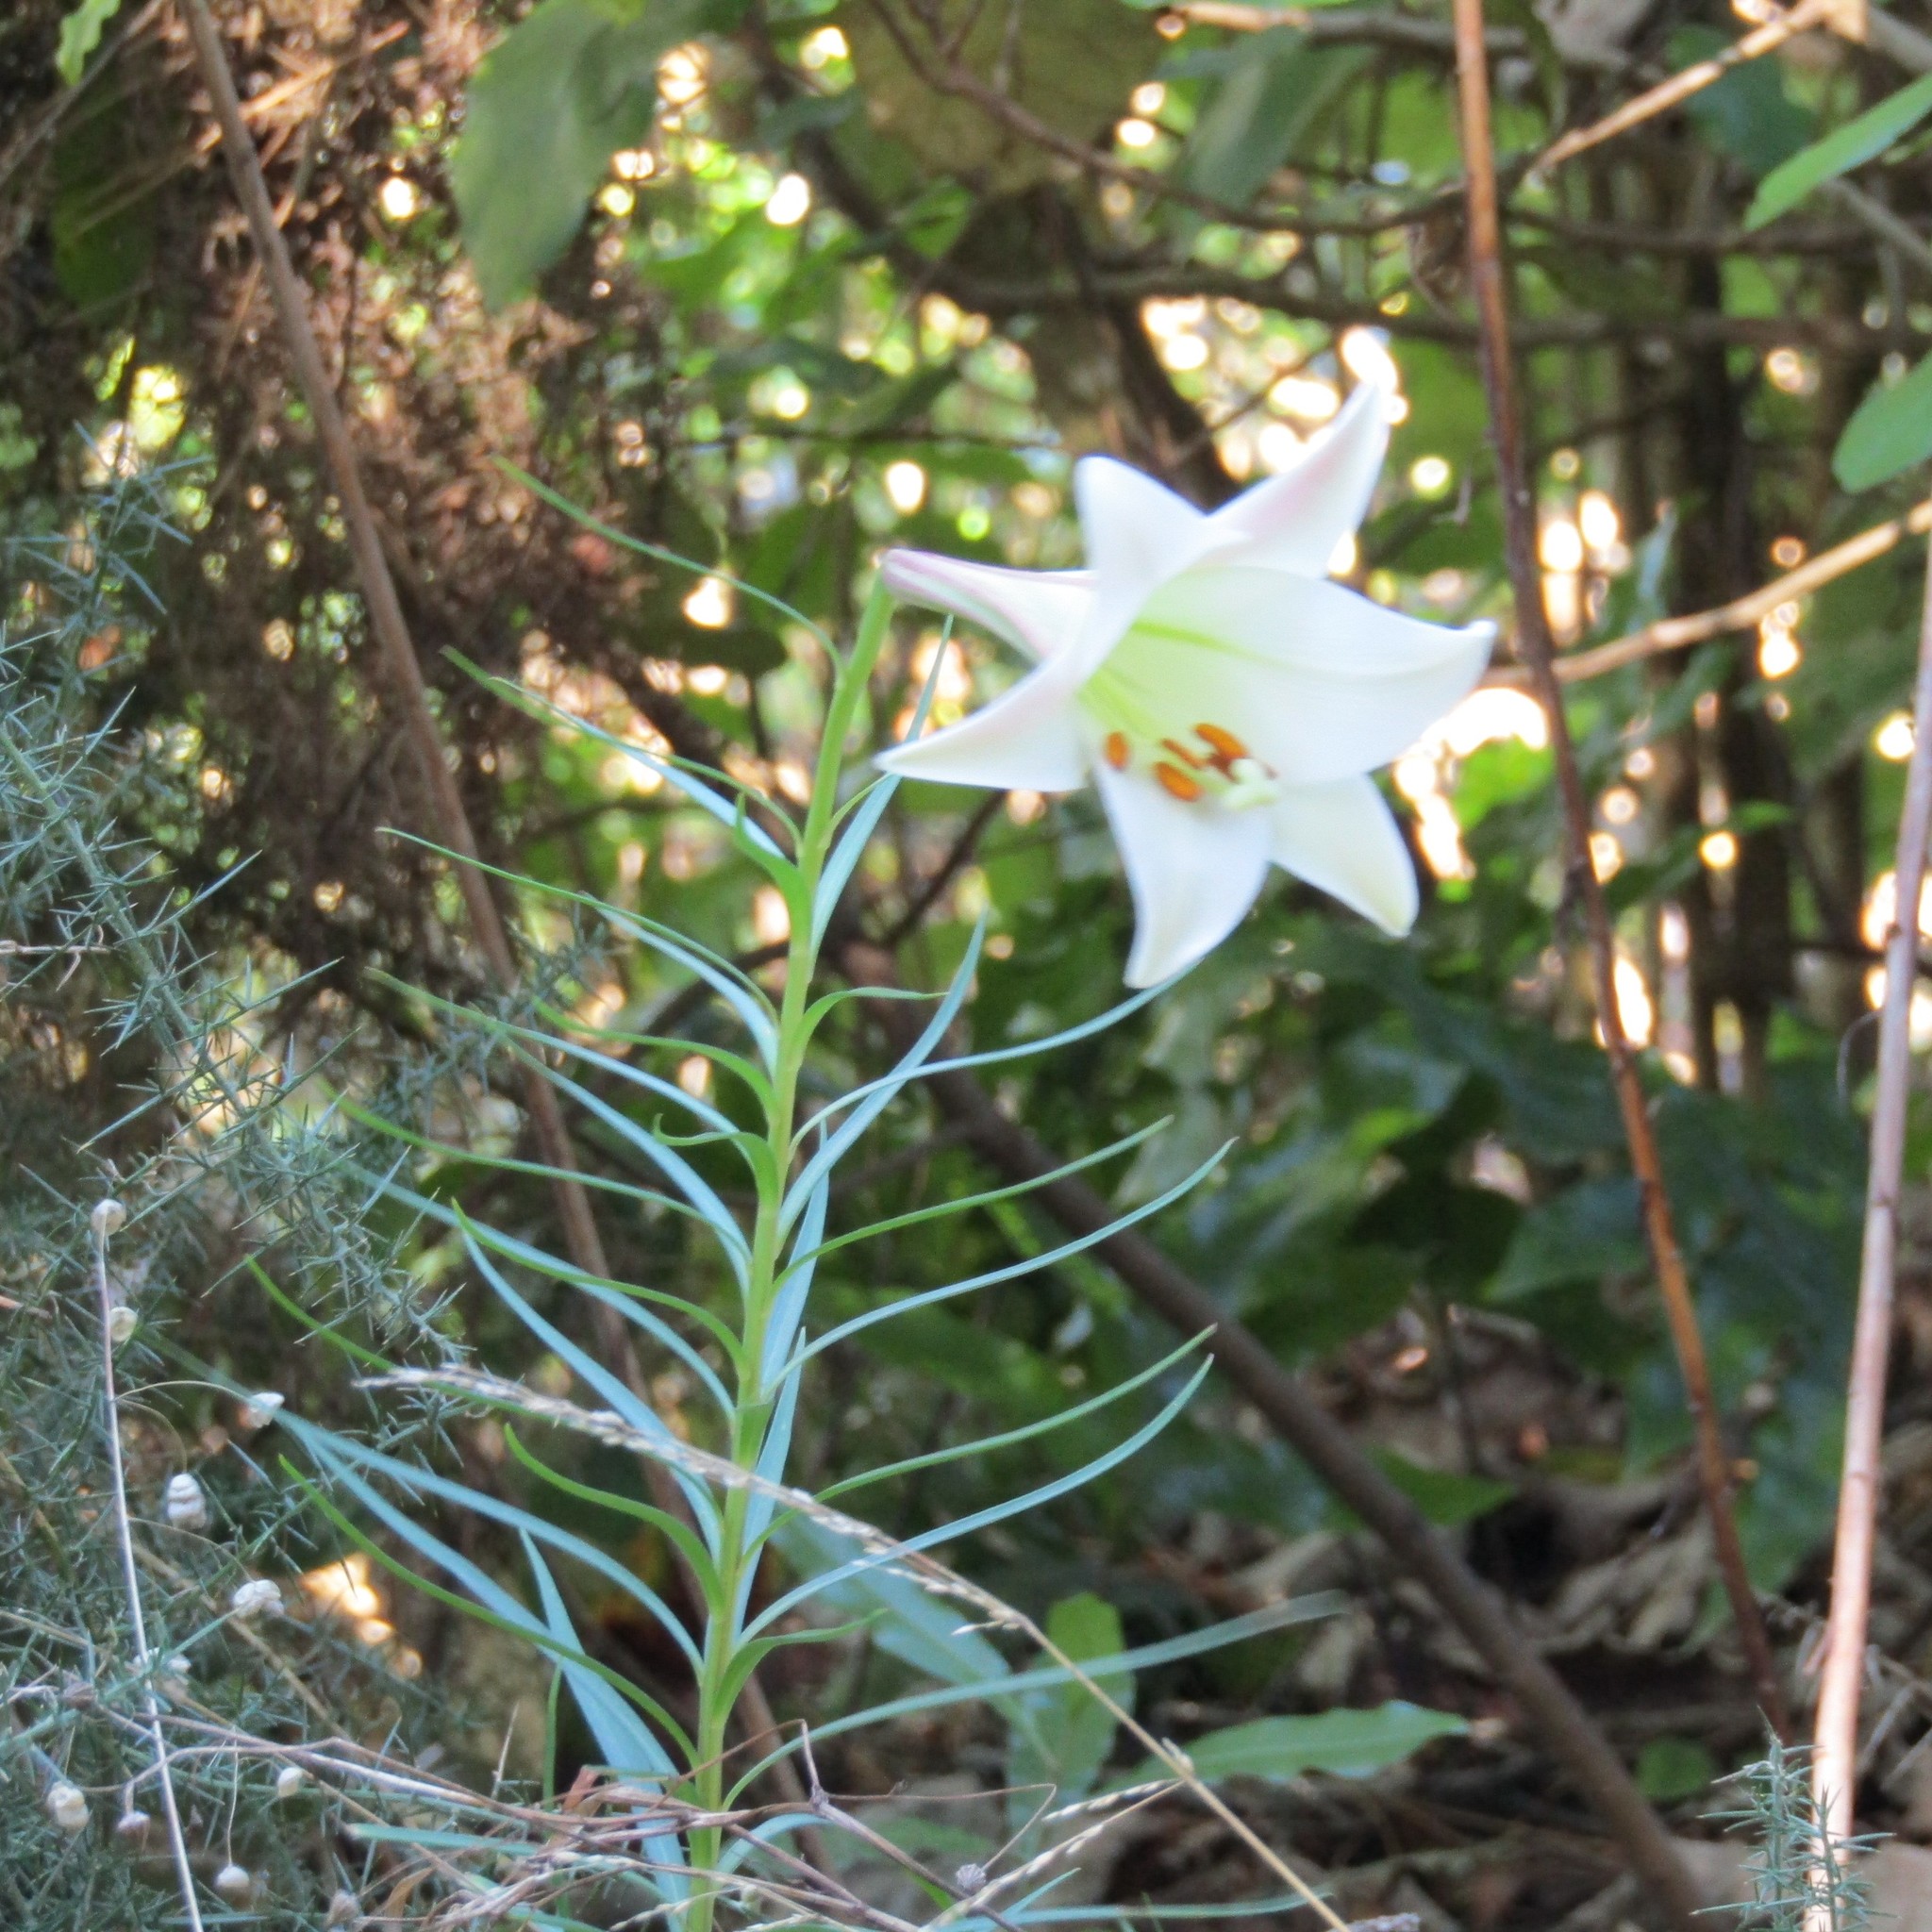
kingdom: Plantae
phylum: Tracheophyta
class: Liliopsida
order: Liliales
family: Liliaceae
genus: Lilium
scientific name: Lilium formosanum
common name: Formosa lily
